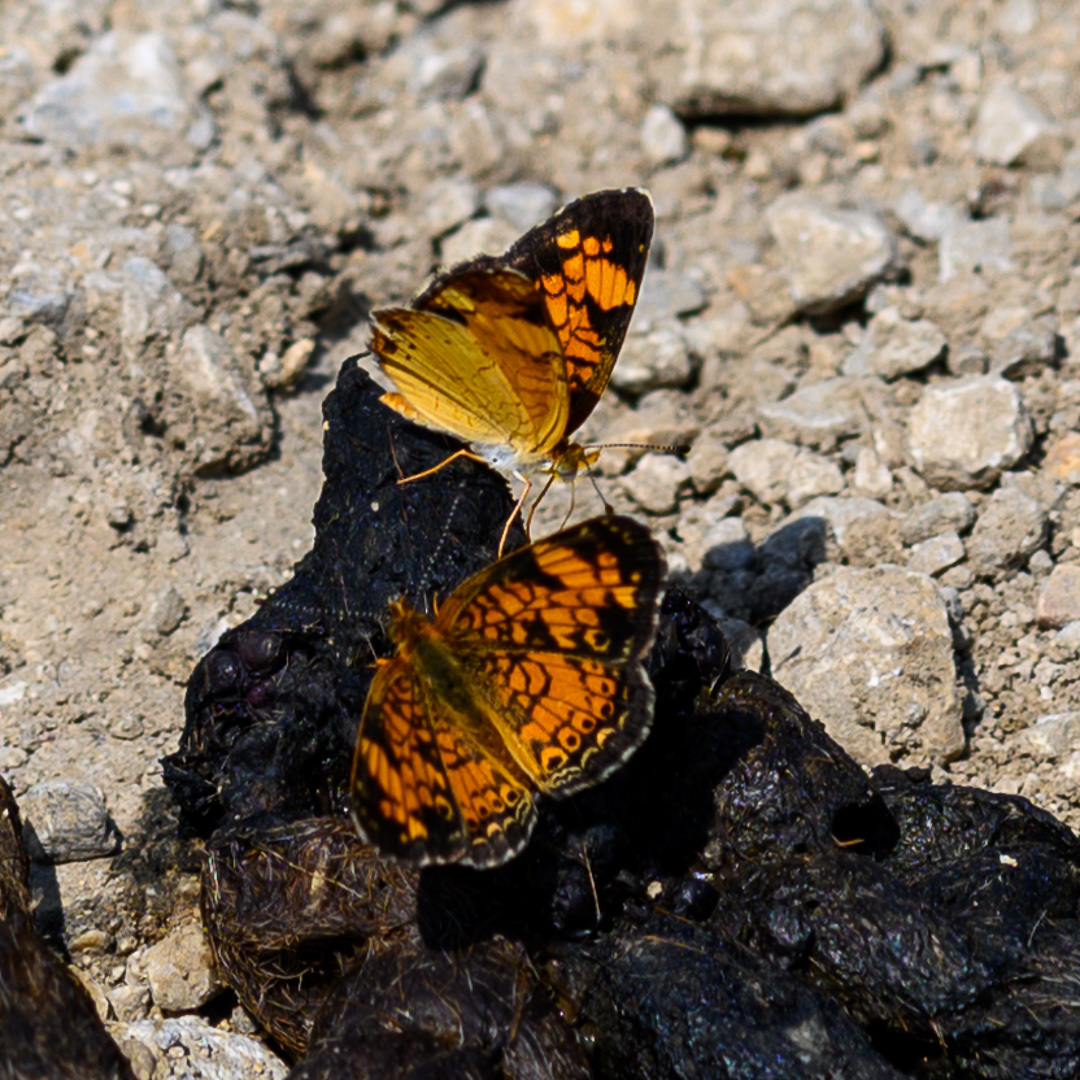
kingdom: Animalia
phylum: Arthropoda
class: Insecta
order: Lepidoptera
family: Nymphalidae
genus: Phyciodes
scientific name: Phyciodes tharos
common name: Pearl crescent
